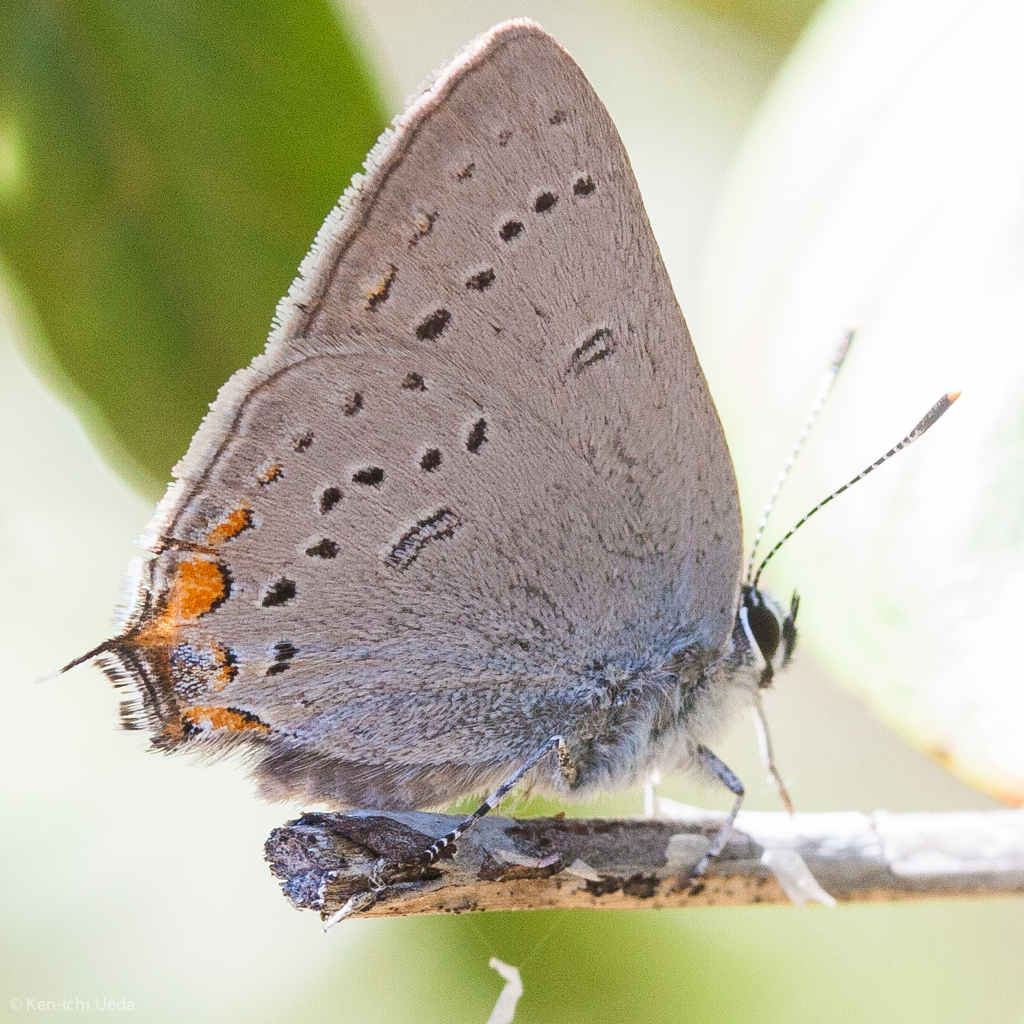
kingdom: Animalia
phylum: Arthropoda
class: Insecta
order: Lepidoptera
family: Lycaenidae
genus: Strymon
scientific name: Strymon acadica
